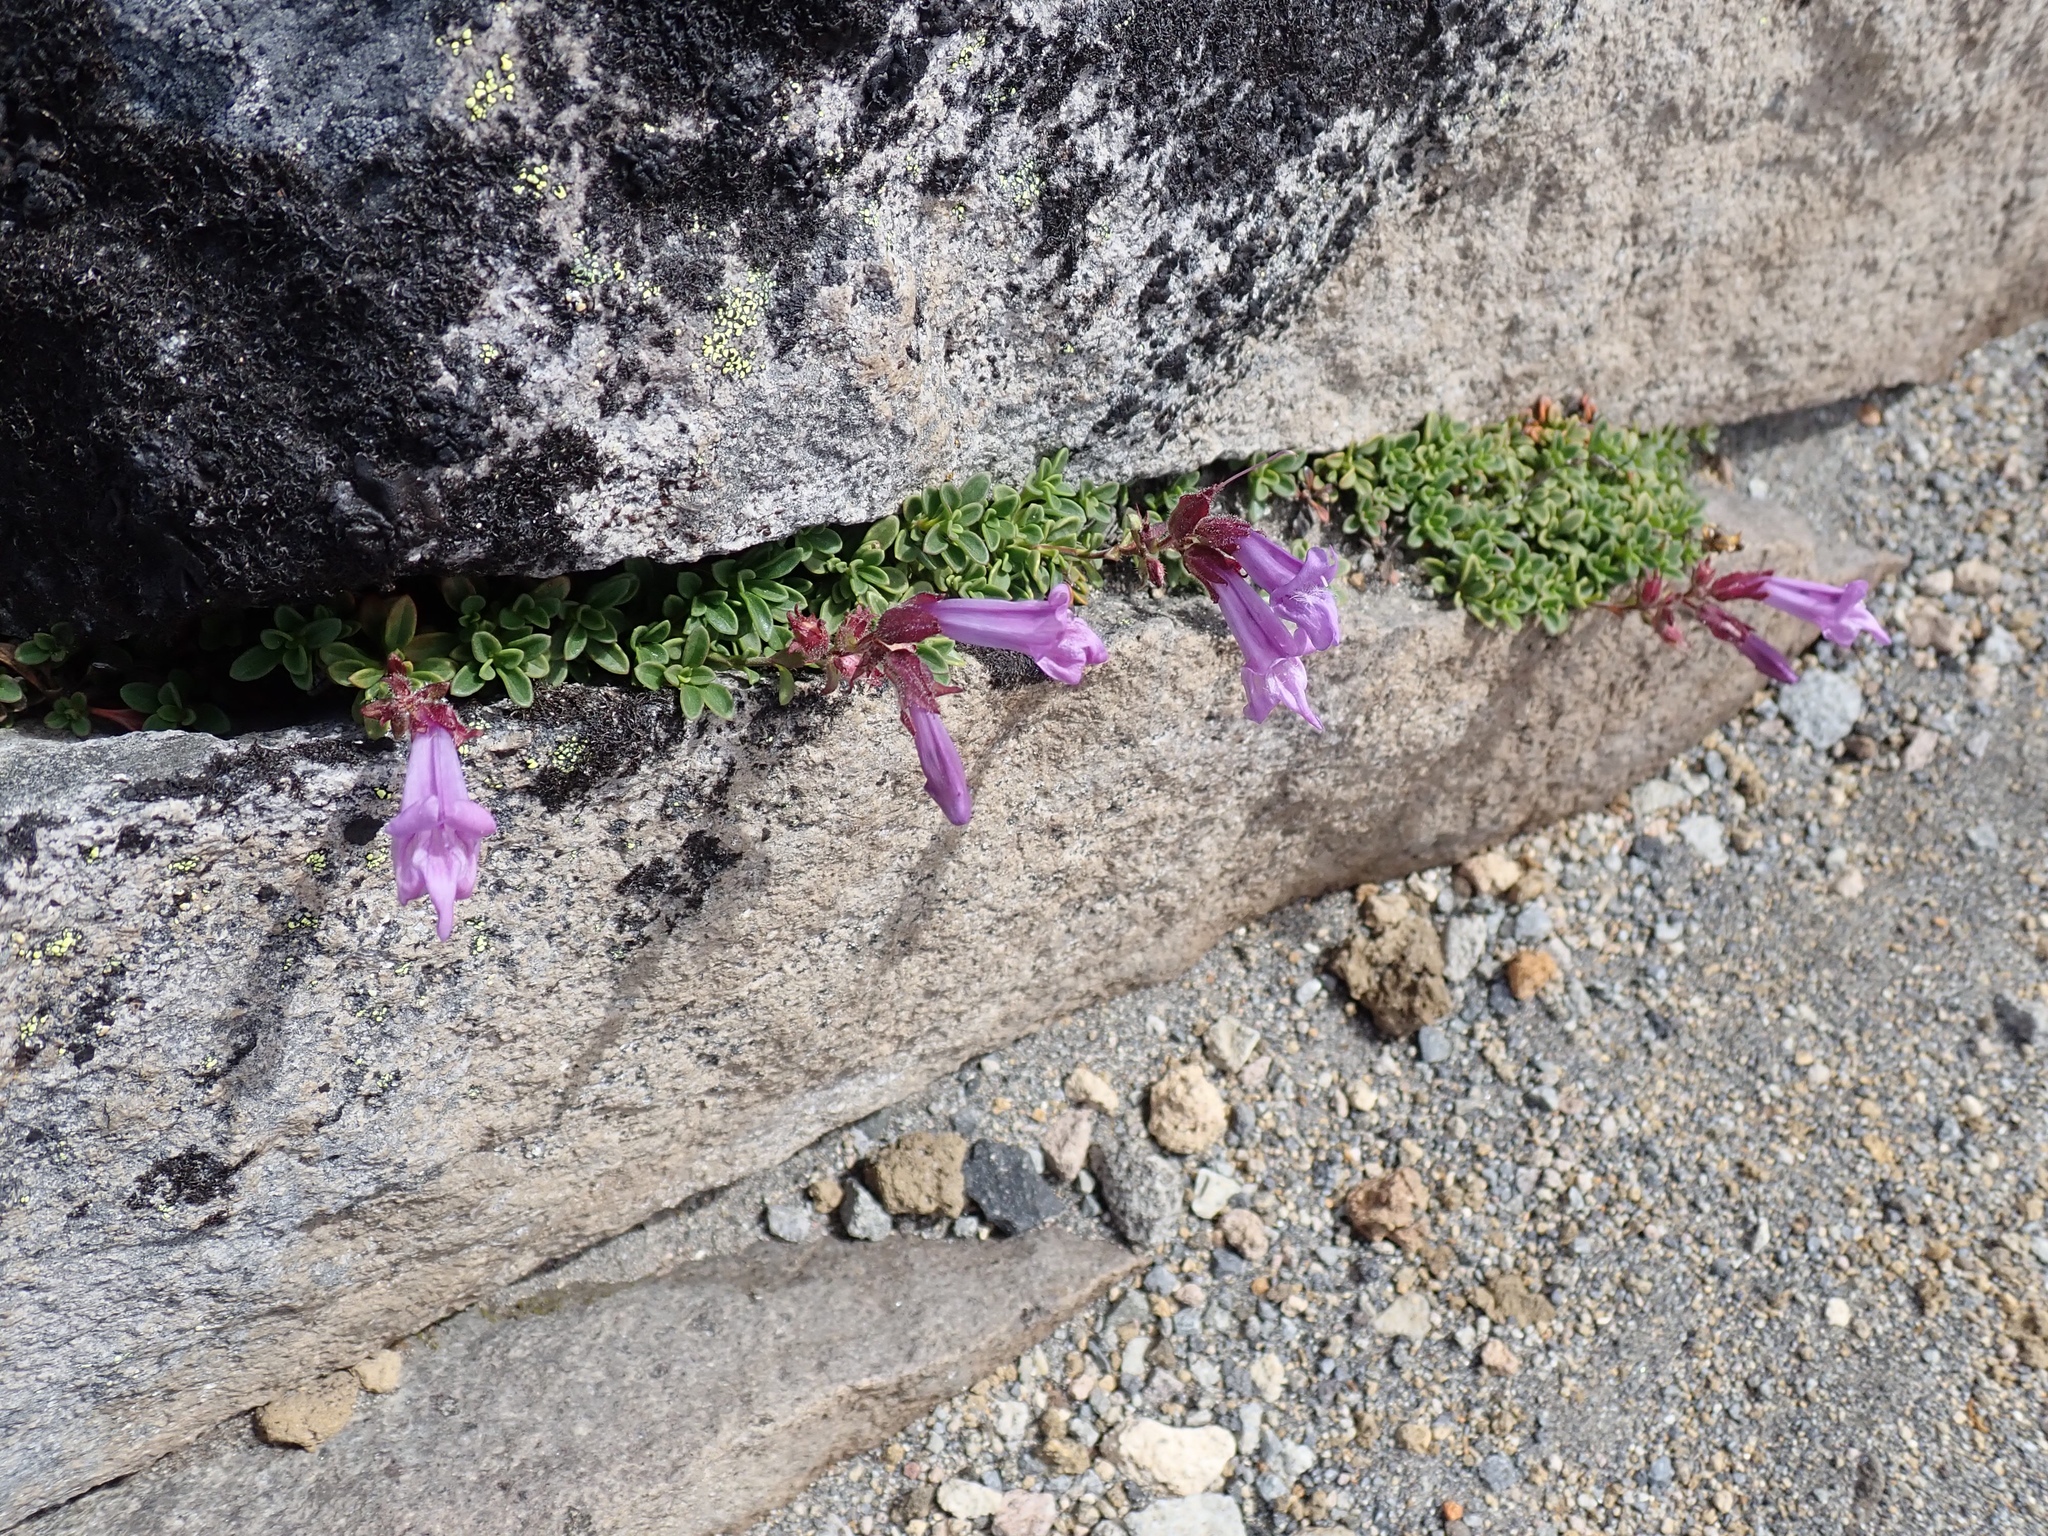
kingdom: Plantae
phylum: Tracheophyta
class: Magnoliopsida
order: Lamiales
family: Plantaginaceae
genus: Penstemon
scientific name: Penstemon davidsonii
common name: Davidson's penstemon
